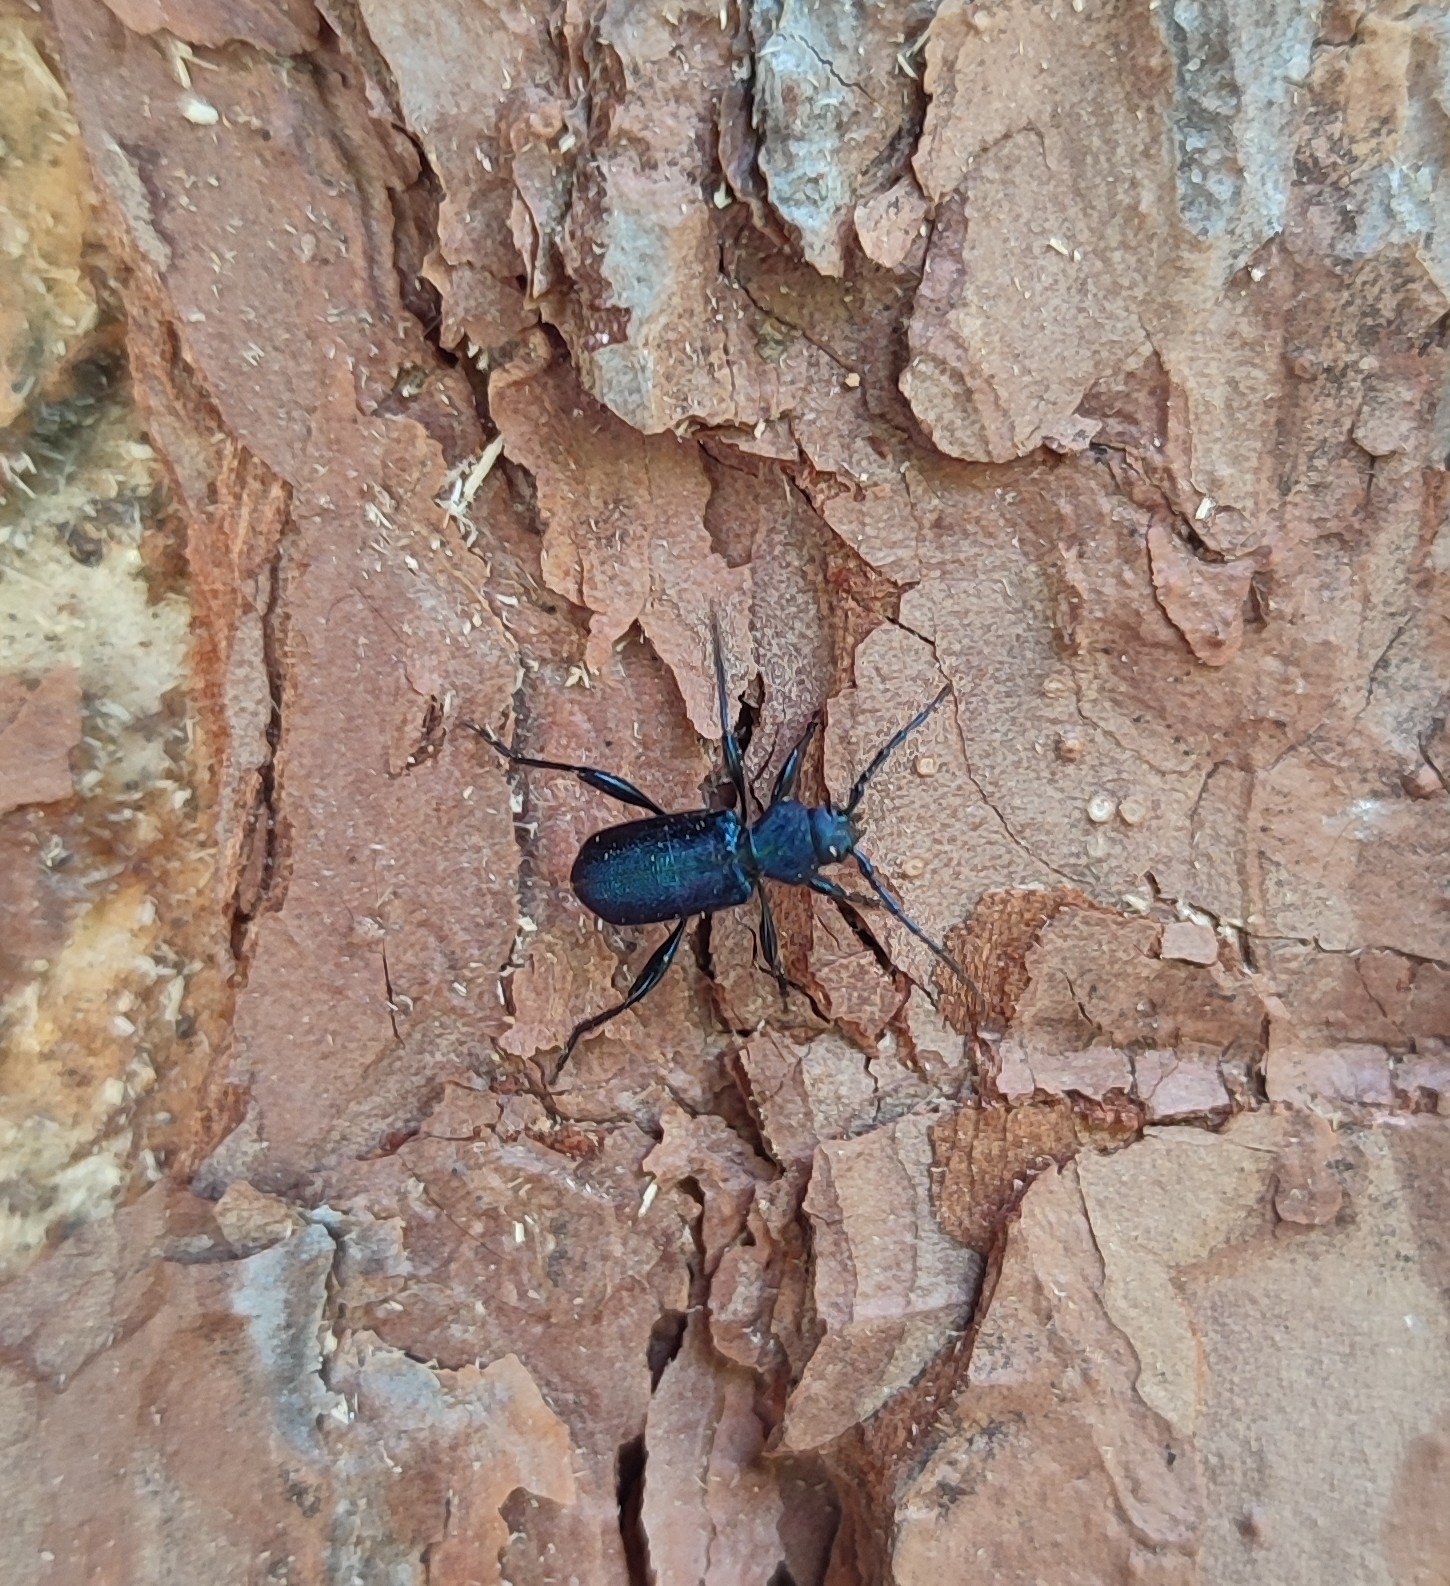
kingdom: Animalia
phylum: Arthropoda
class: Insecta
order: Coleoptera
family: Cerambycidae
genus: Callidium
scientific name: Callidium violaceum
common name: Violet tanbark beetle
